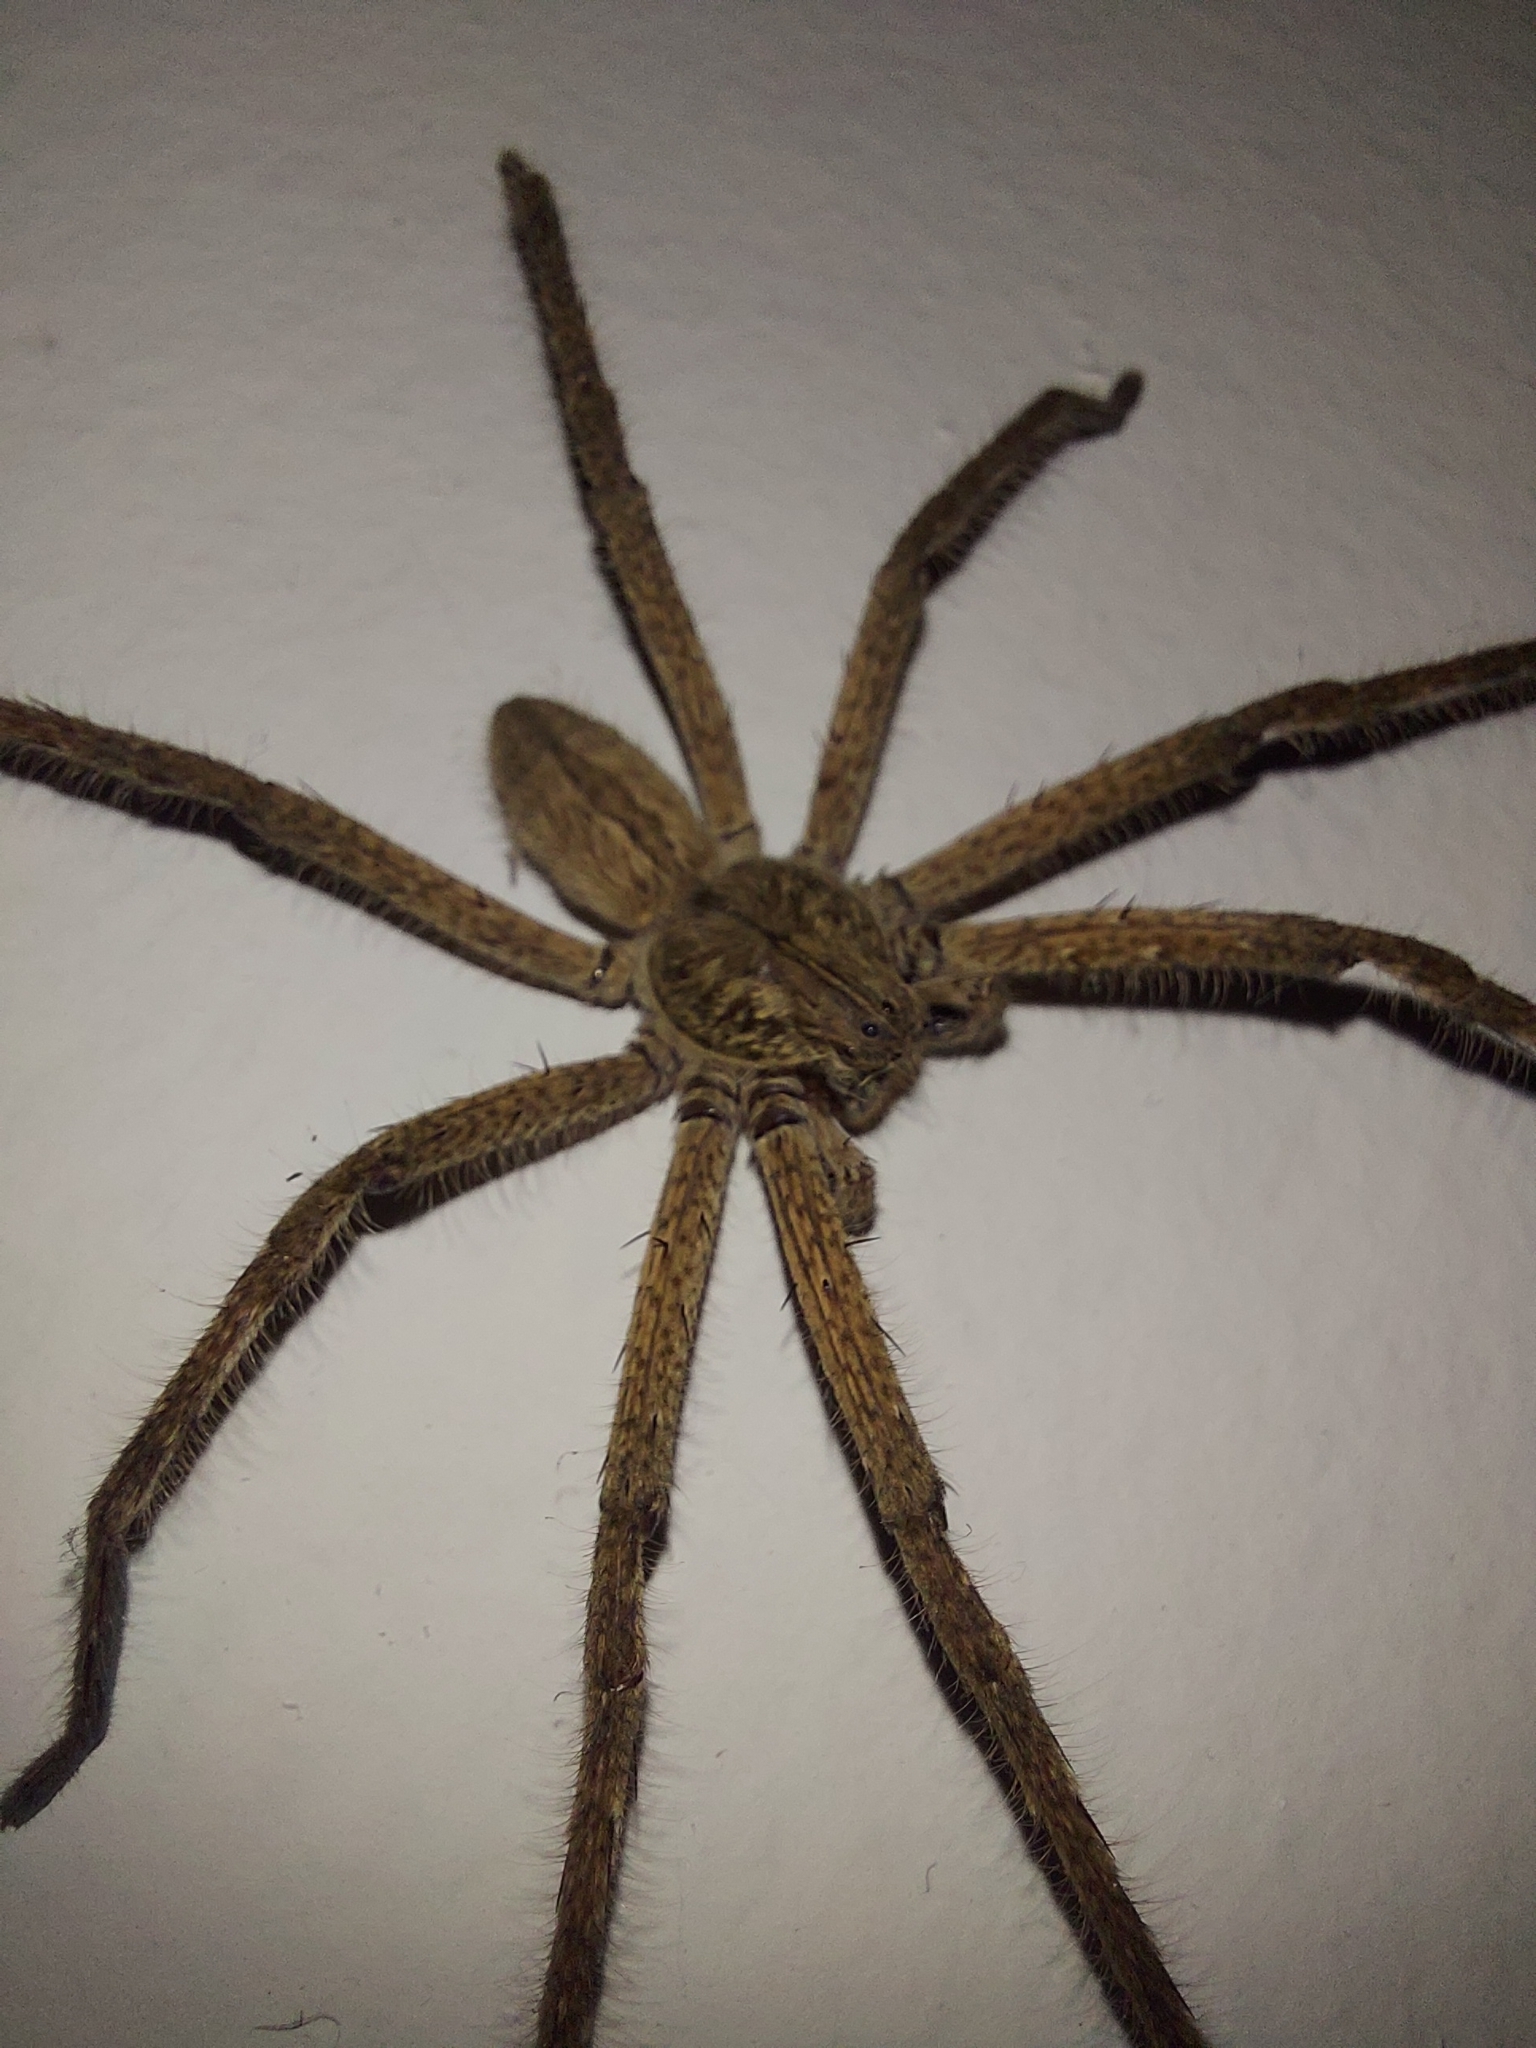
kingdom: Animalia
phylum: Arthropoda
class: Arachnida
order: Araneae
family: Sparassidae
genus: Palystes
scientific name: Palystes superciliosus
